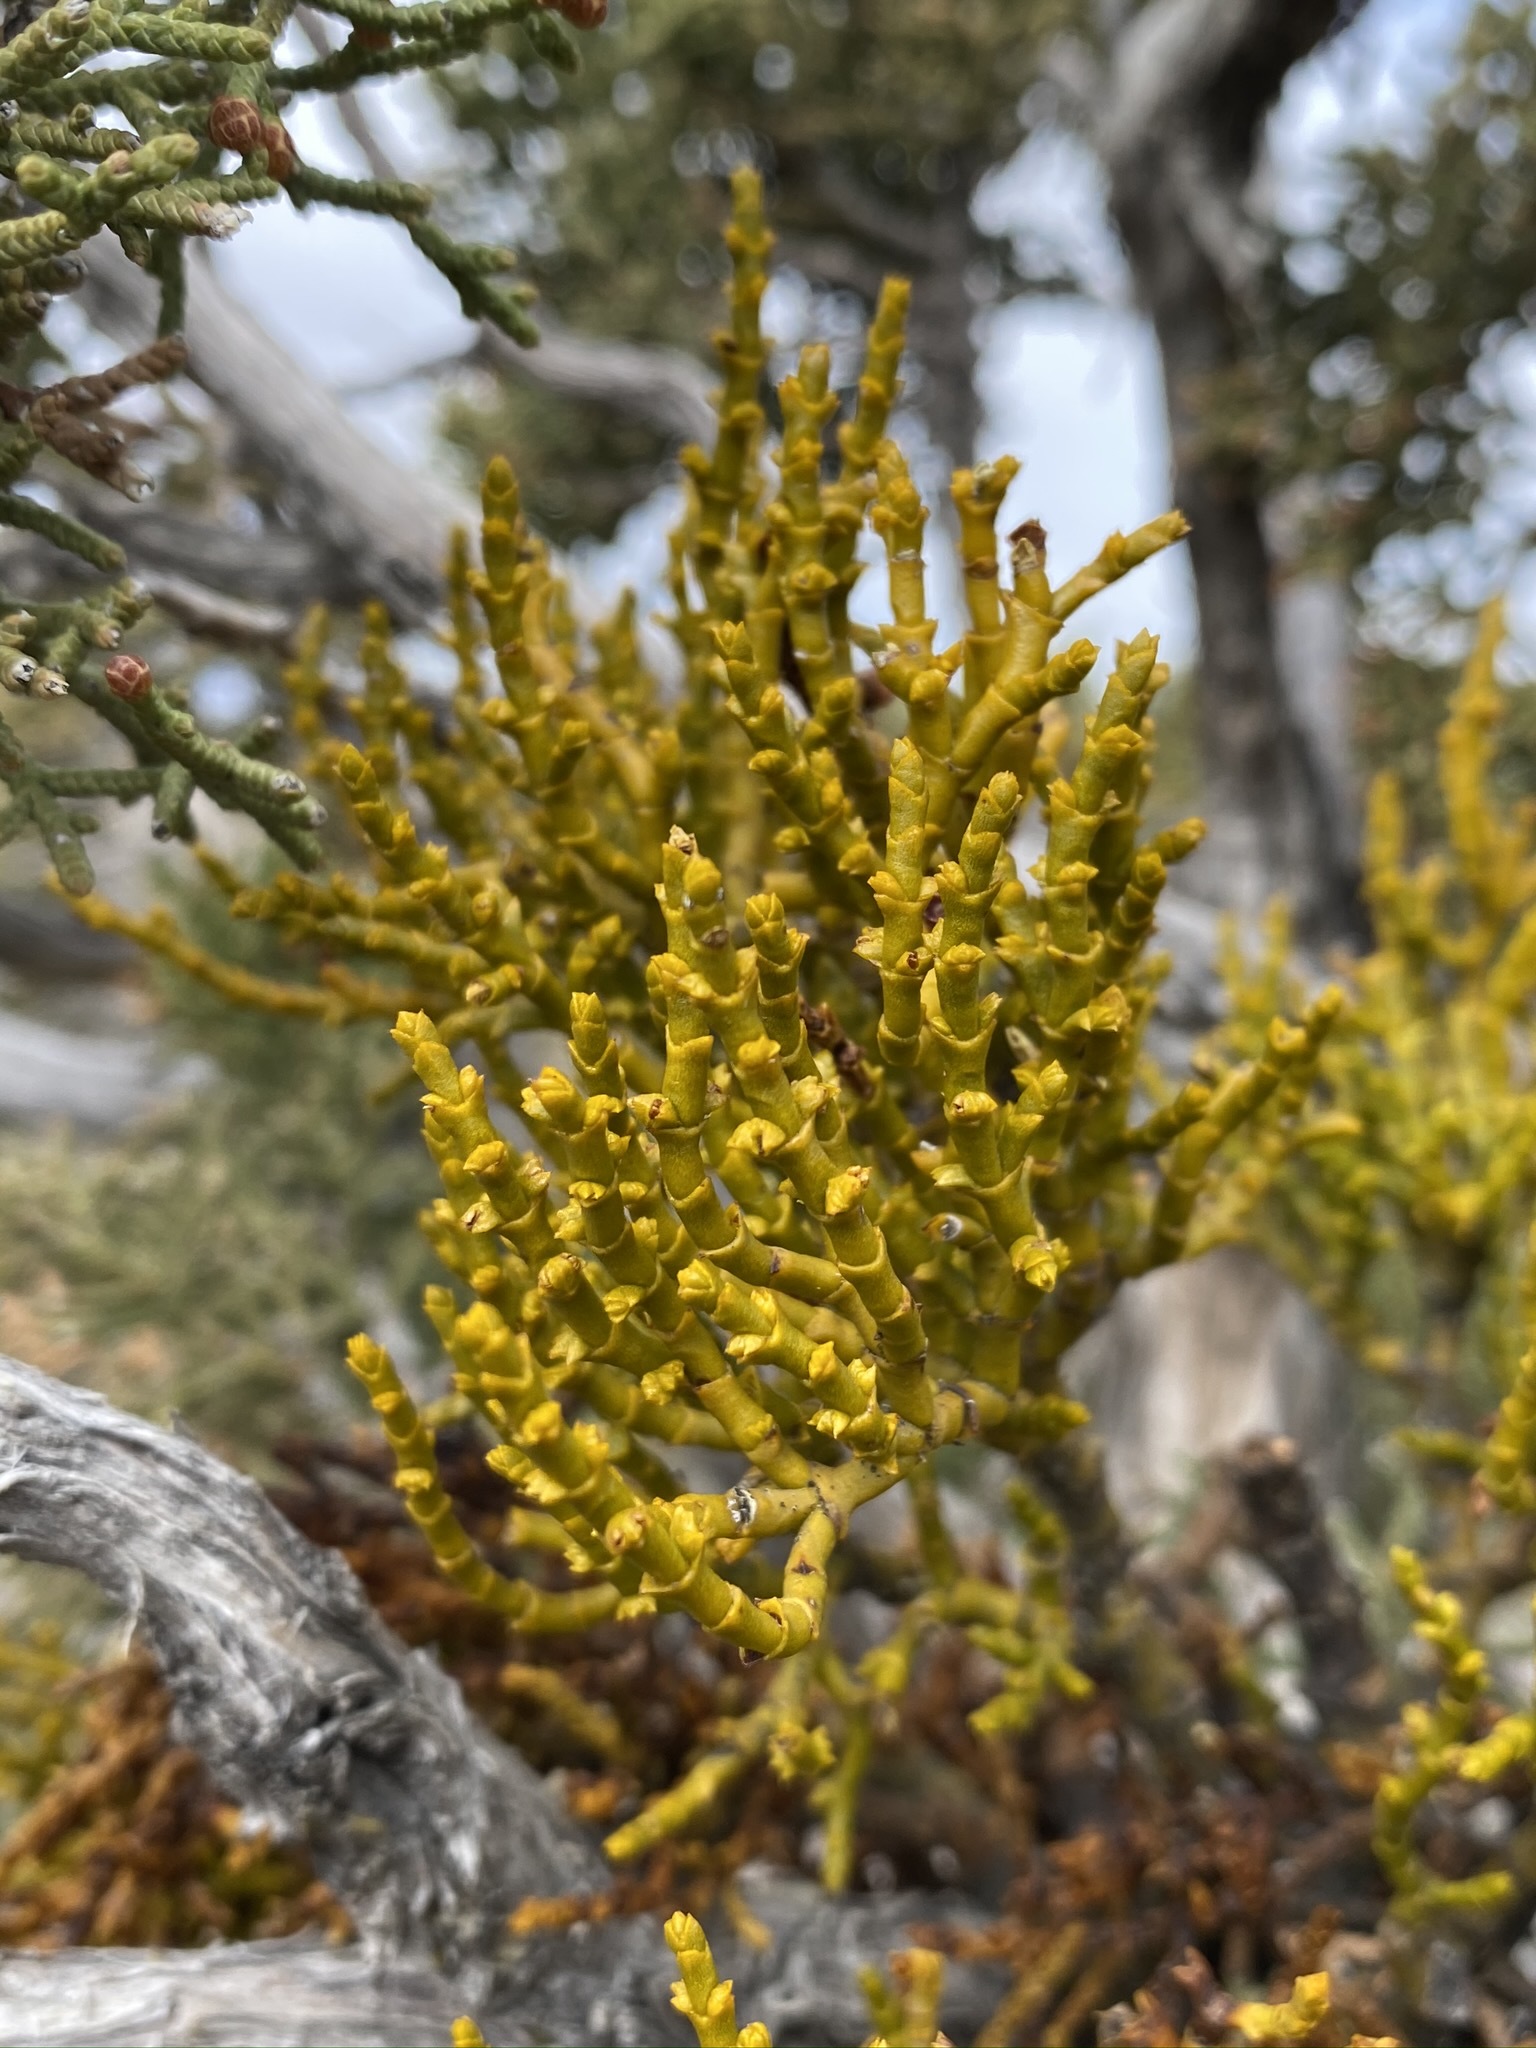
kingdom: Plantae
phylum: Tracheophyta
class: Magnoliopsida
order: Santalales
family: Viscaceae
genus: Phoradendron
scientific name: Phoradendron juniperinum
